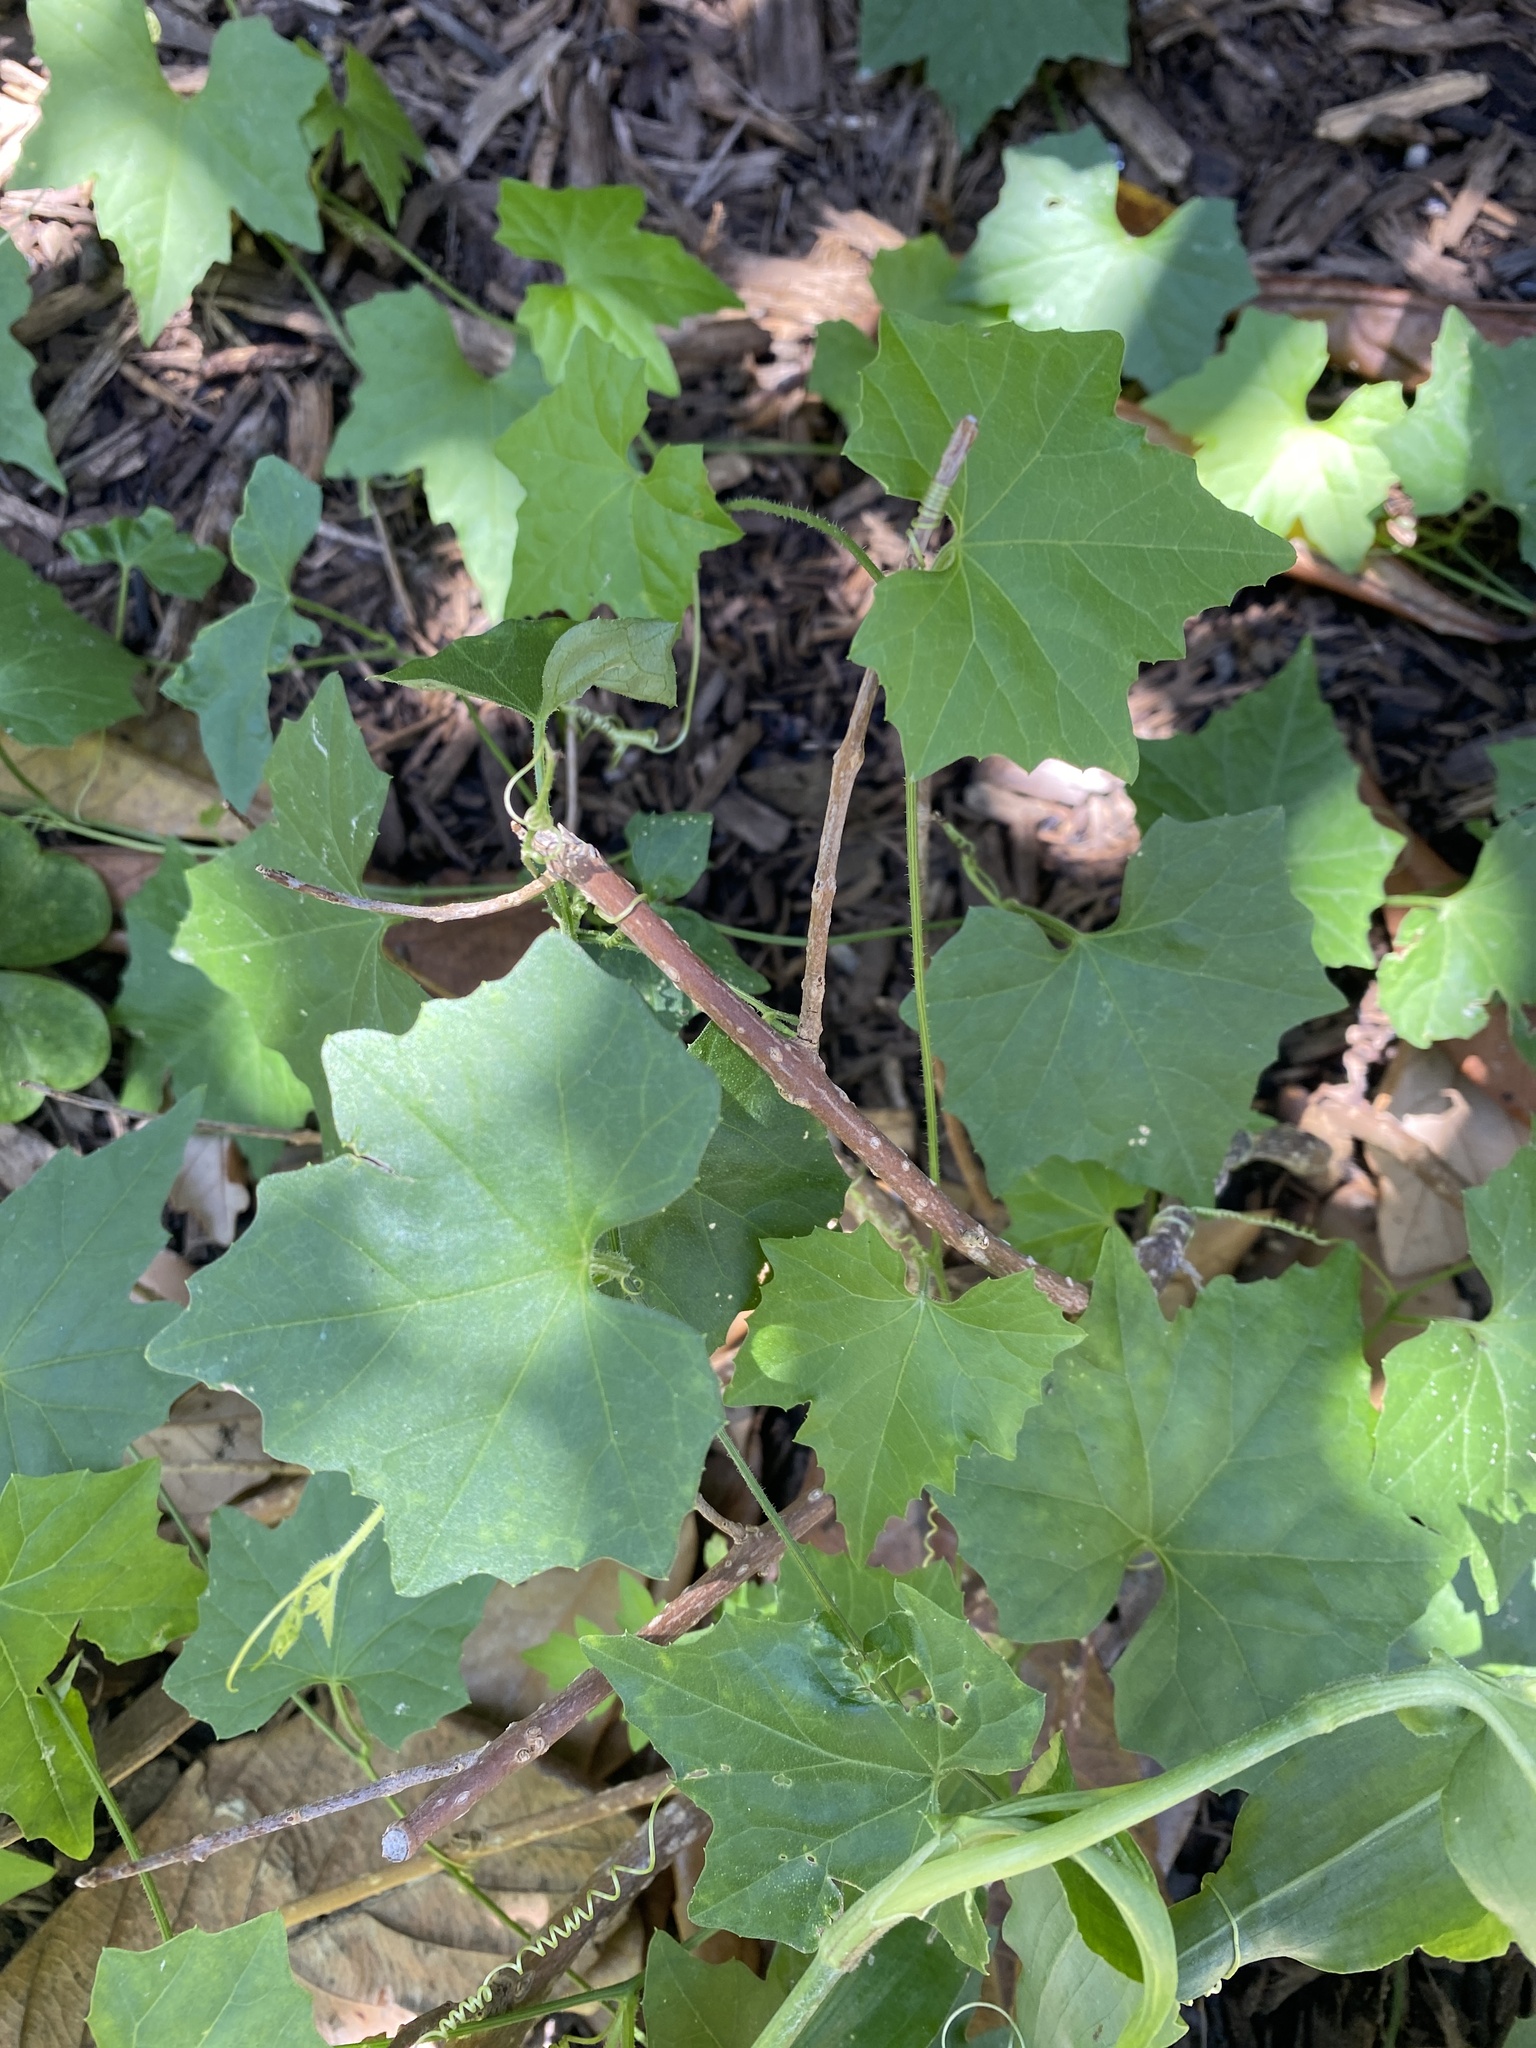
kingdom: Plantae
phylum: Tracheophyta
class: Magnoliopsida
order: Cucurbitales
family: Cucurbitaceae
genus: Melothria
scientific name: Melothria pendula
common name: Creeping-cucumber
